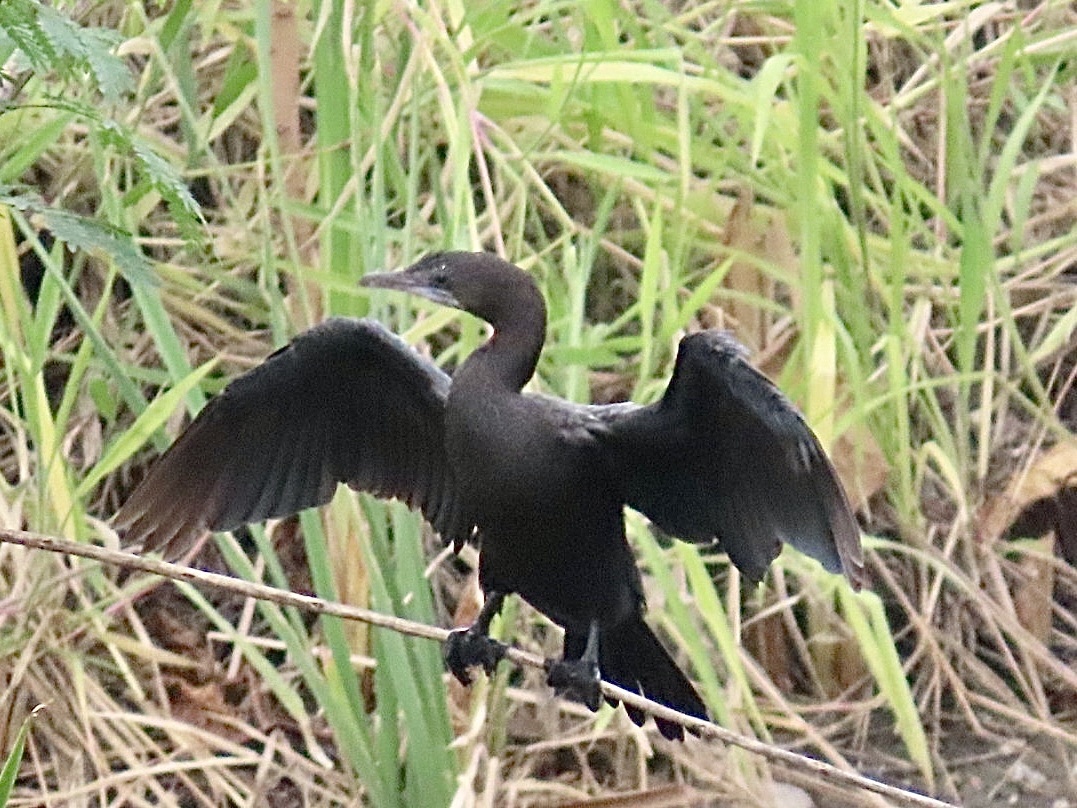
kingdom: Animalia
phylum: Chordata
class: Aves
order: Suliformes
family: Phalacrocoracidae
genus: Microcarbo
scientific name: Microcarbo niger
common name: Little cormorant
